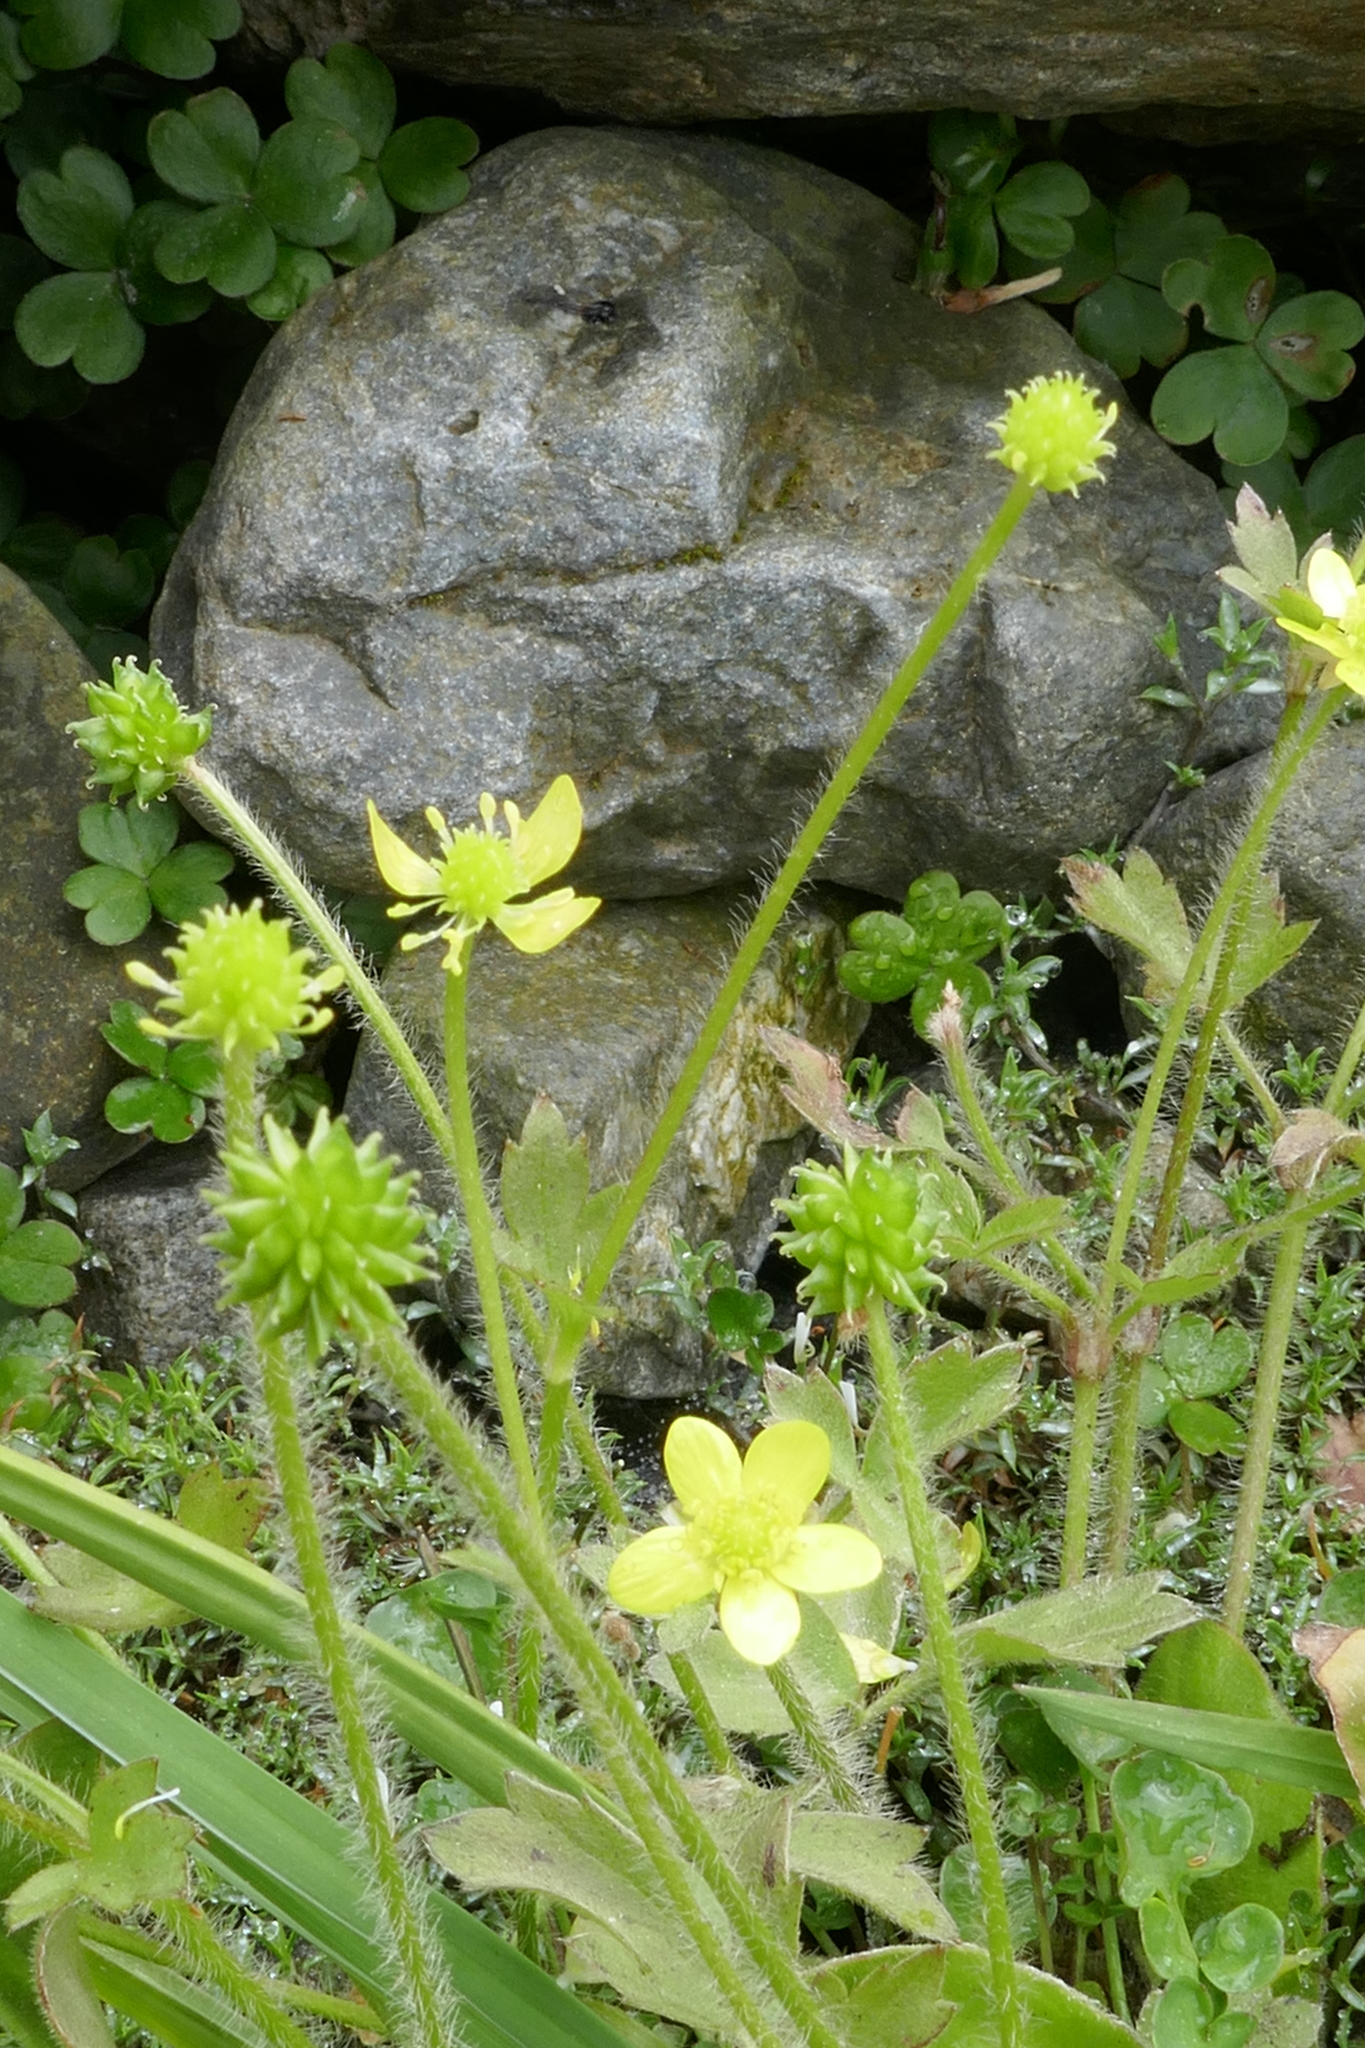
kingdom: Plantae
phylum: Tracheophyta
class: Magnoliopsida
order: Ranunculales
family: Ranunculaceae
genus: Ranunculus
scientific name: Ranunculus reflexus
